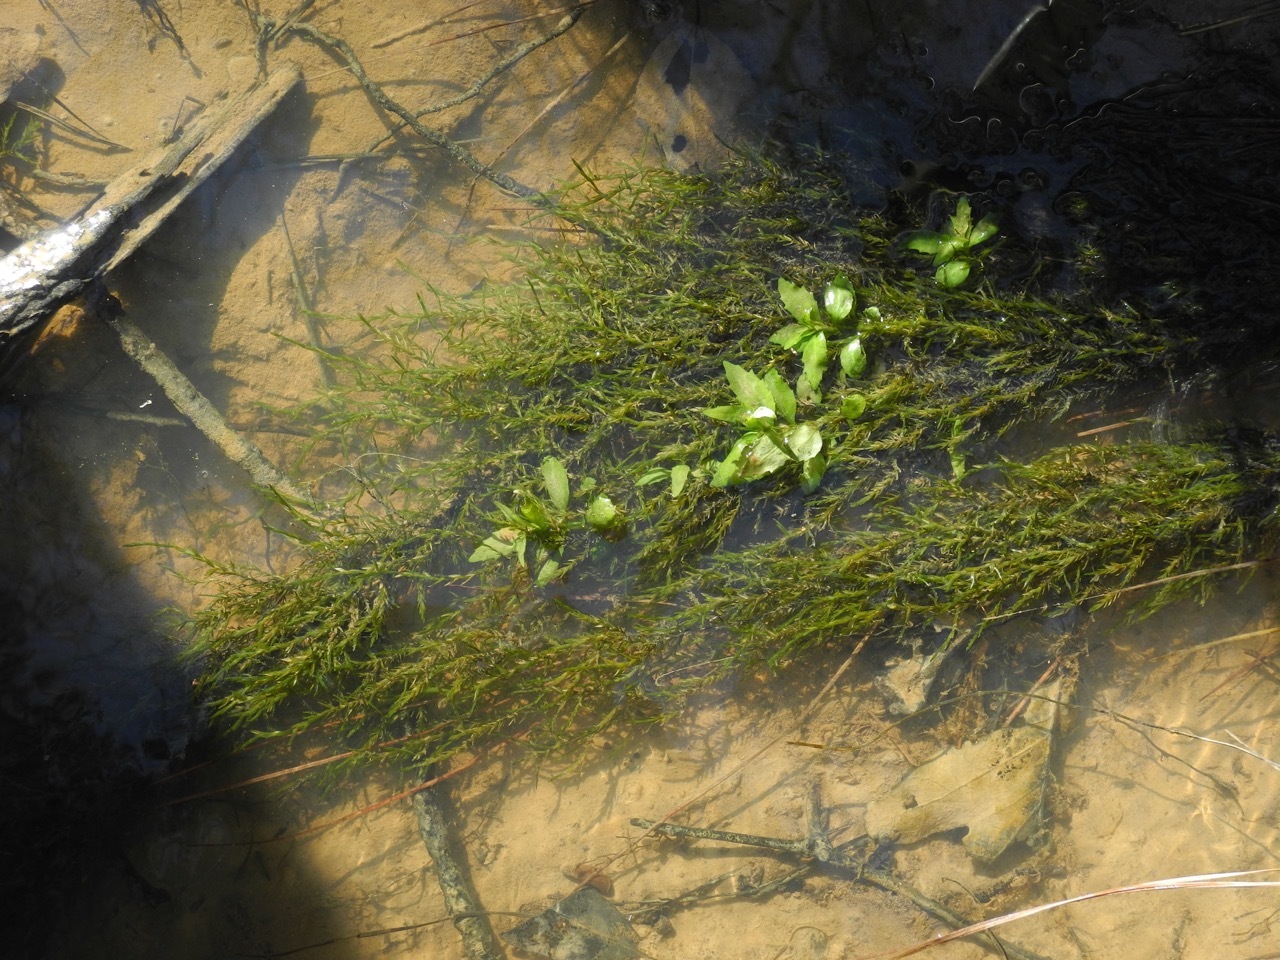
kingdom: Plantae
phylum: Bryophyta
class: Bryopsida
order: Hypnales
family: Fontinalaceae
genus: Fontinalis
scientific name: Fontinalis sphagnifolia
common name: Sphagnum-like water moss
